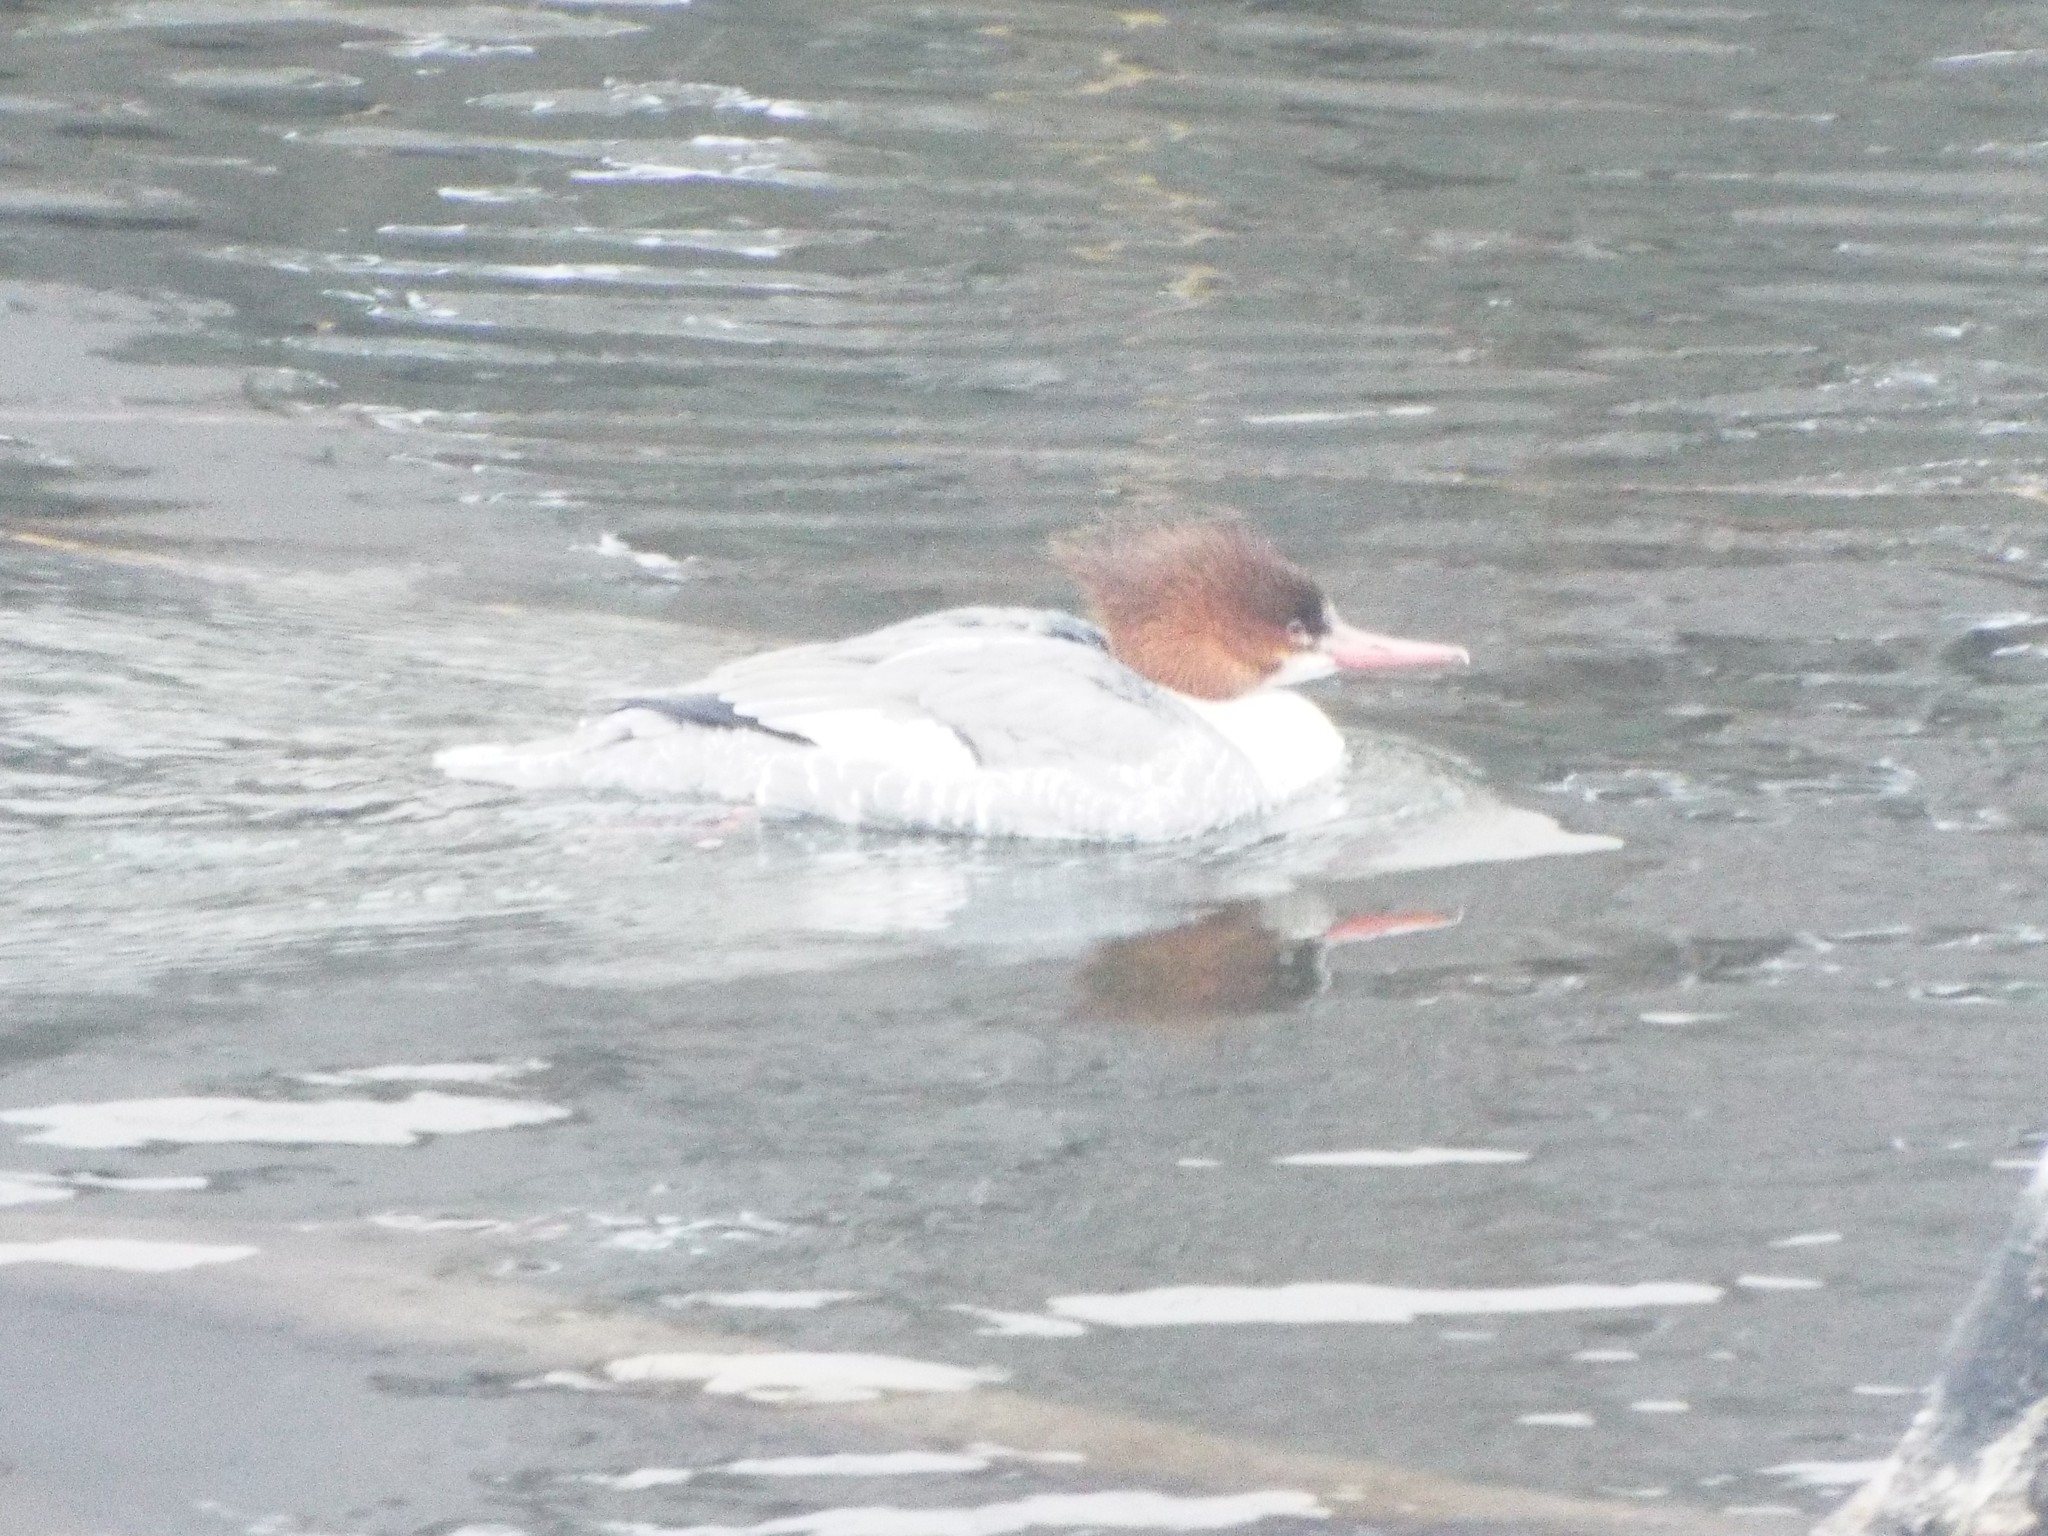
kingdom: Animalia
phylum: Chordata
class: Aves
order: Anseriformes
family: Anatidae
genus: Mergus
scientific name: Mergus merganser
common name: Common merganser
